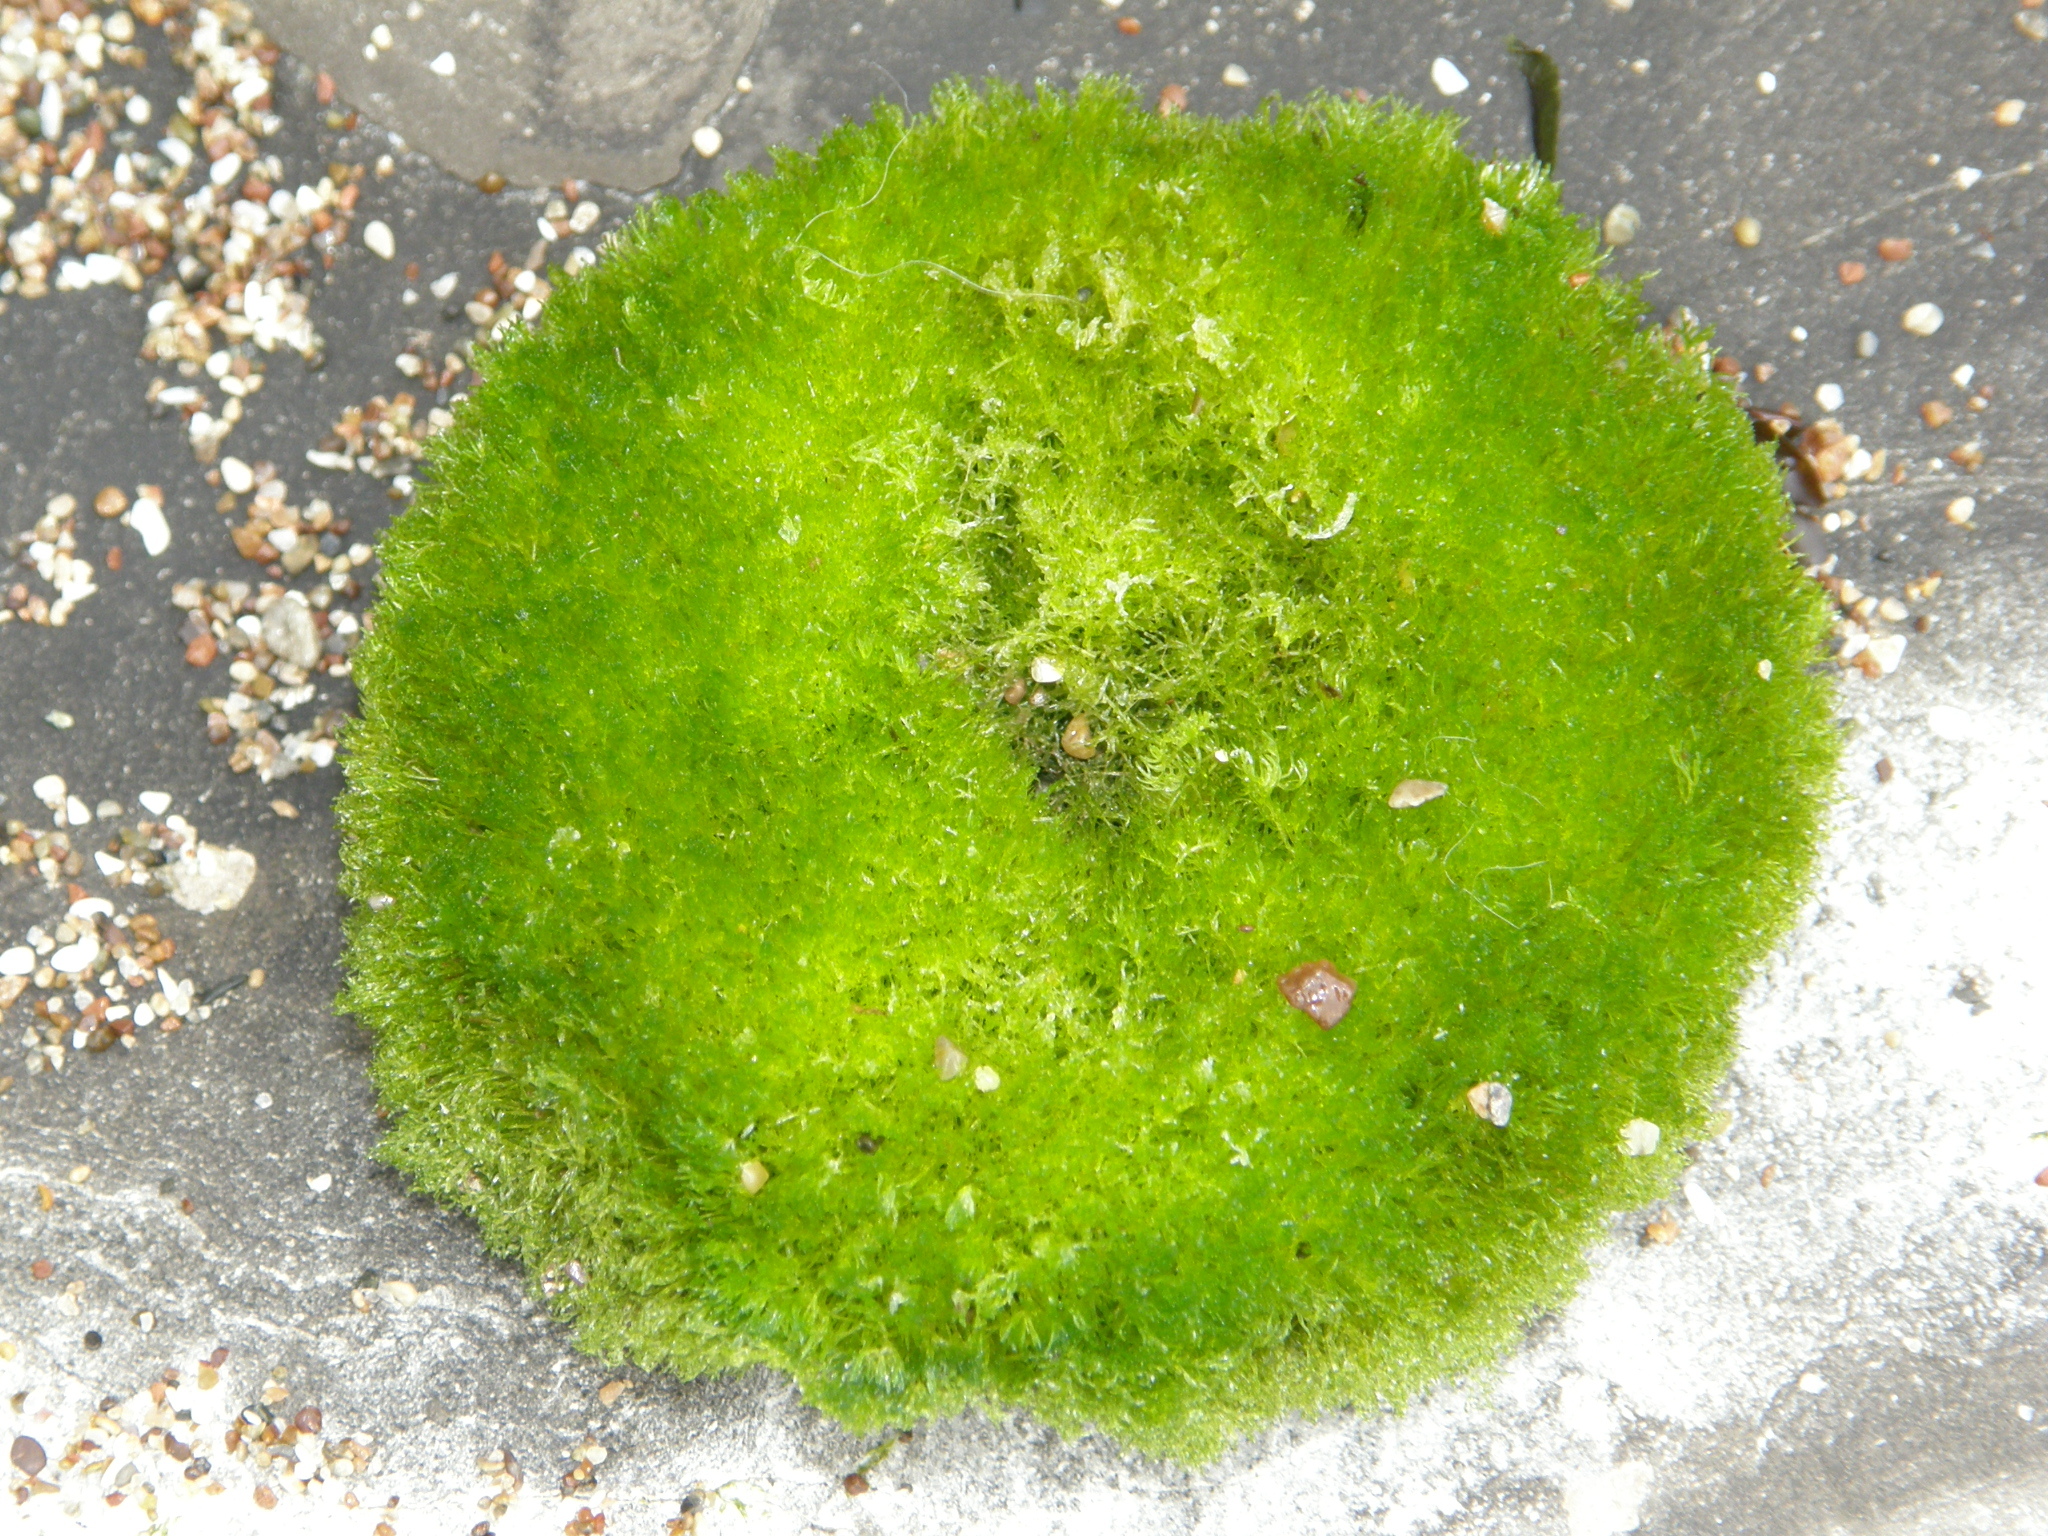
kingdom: Plantae
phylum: Chlorophyta
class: Ulvophyceae
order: Cladophorales
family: Cladophoraceae
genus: Cladophora
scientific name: Cladophora columbiana
